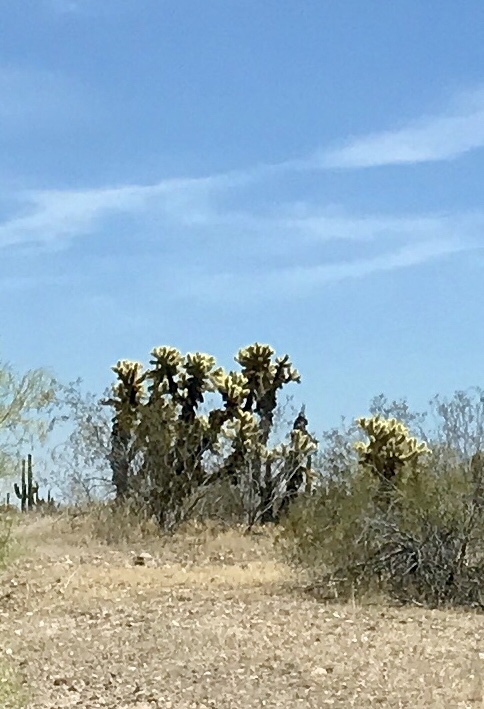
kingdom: Plantae
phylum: Tracheophyta
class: Magnoliopsida
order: Caryophyllales
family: Cactaceae
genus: Cylindropuntia
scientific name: Cylindropuntia fosbergii
